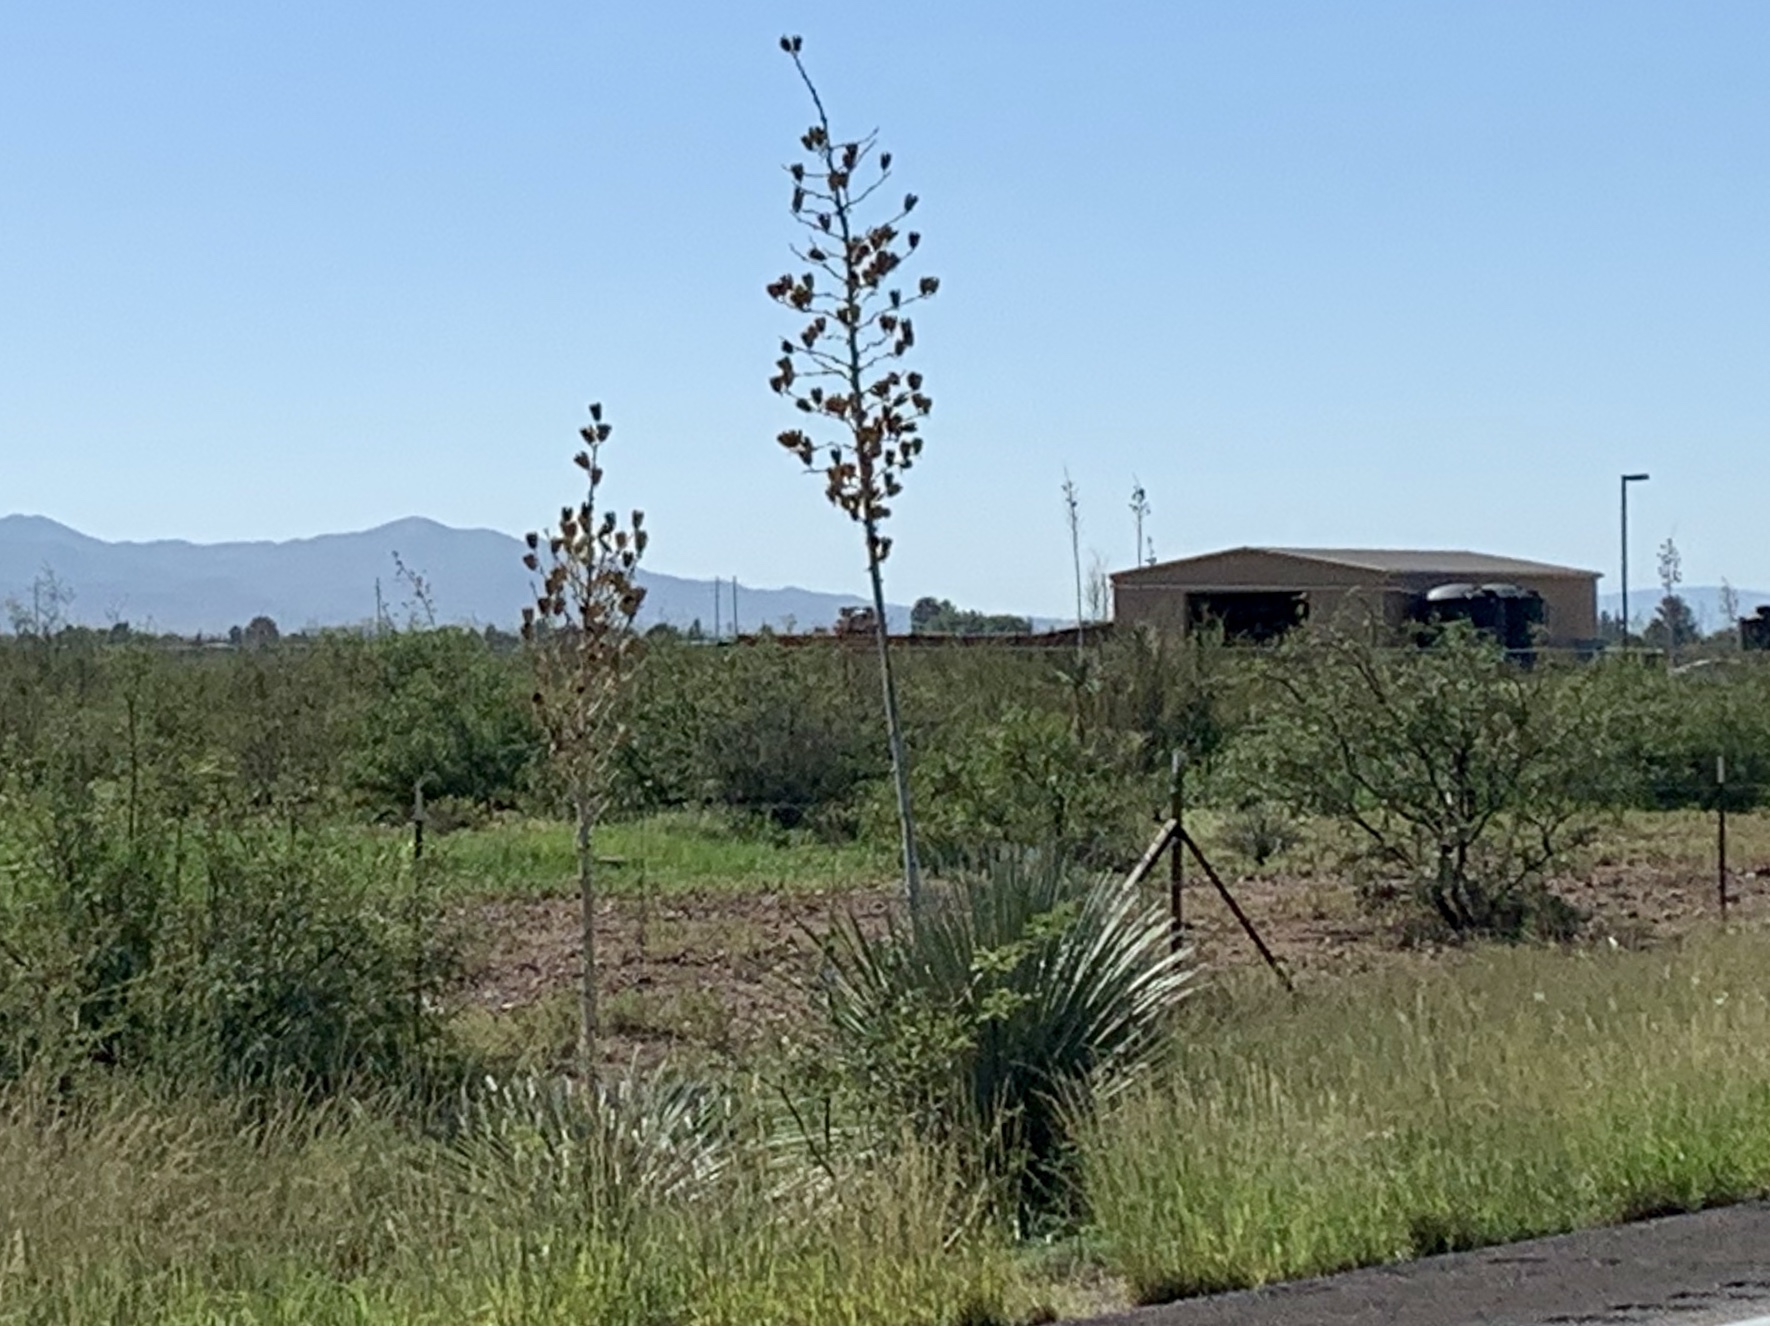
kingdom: Plantae
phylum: Tracheophyta
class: Liliopsida
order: Asparagales
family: Asparagaceae
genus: Yucca
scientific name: Yucca elata
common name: Palmella
